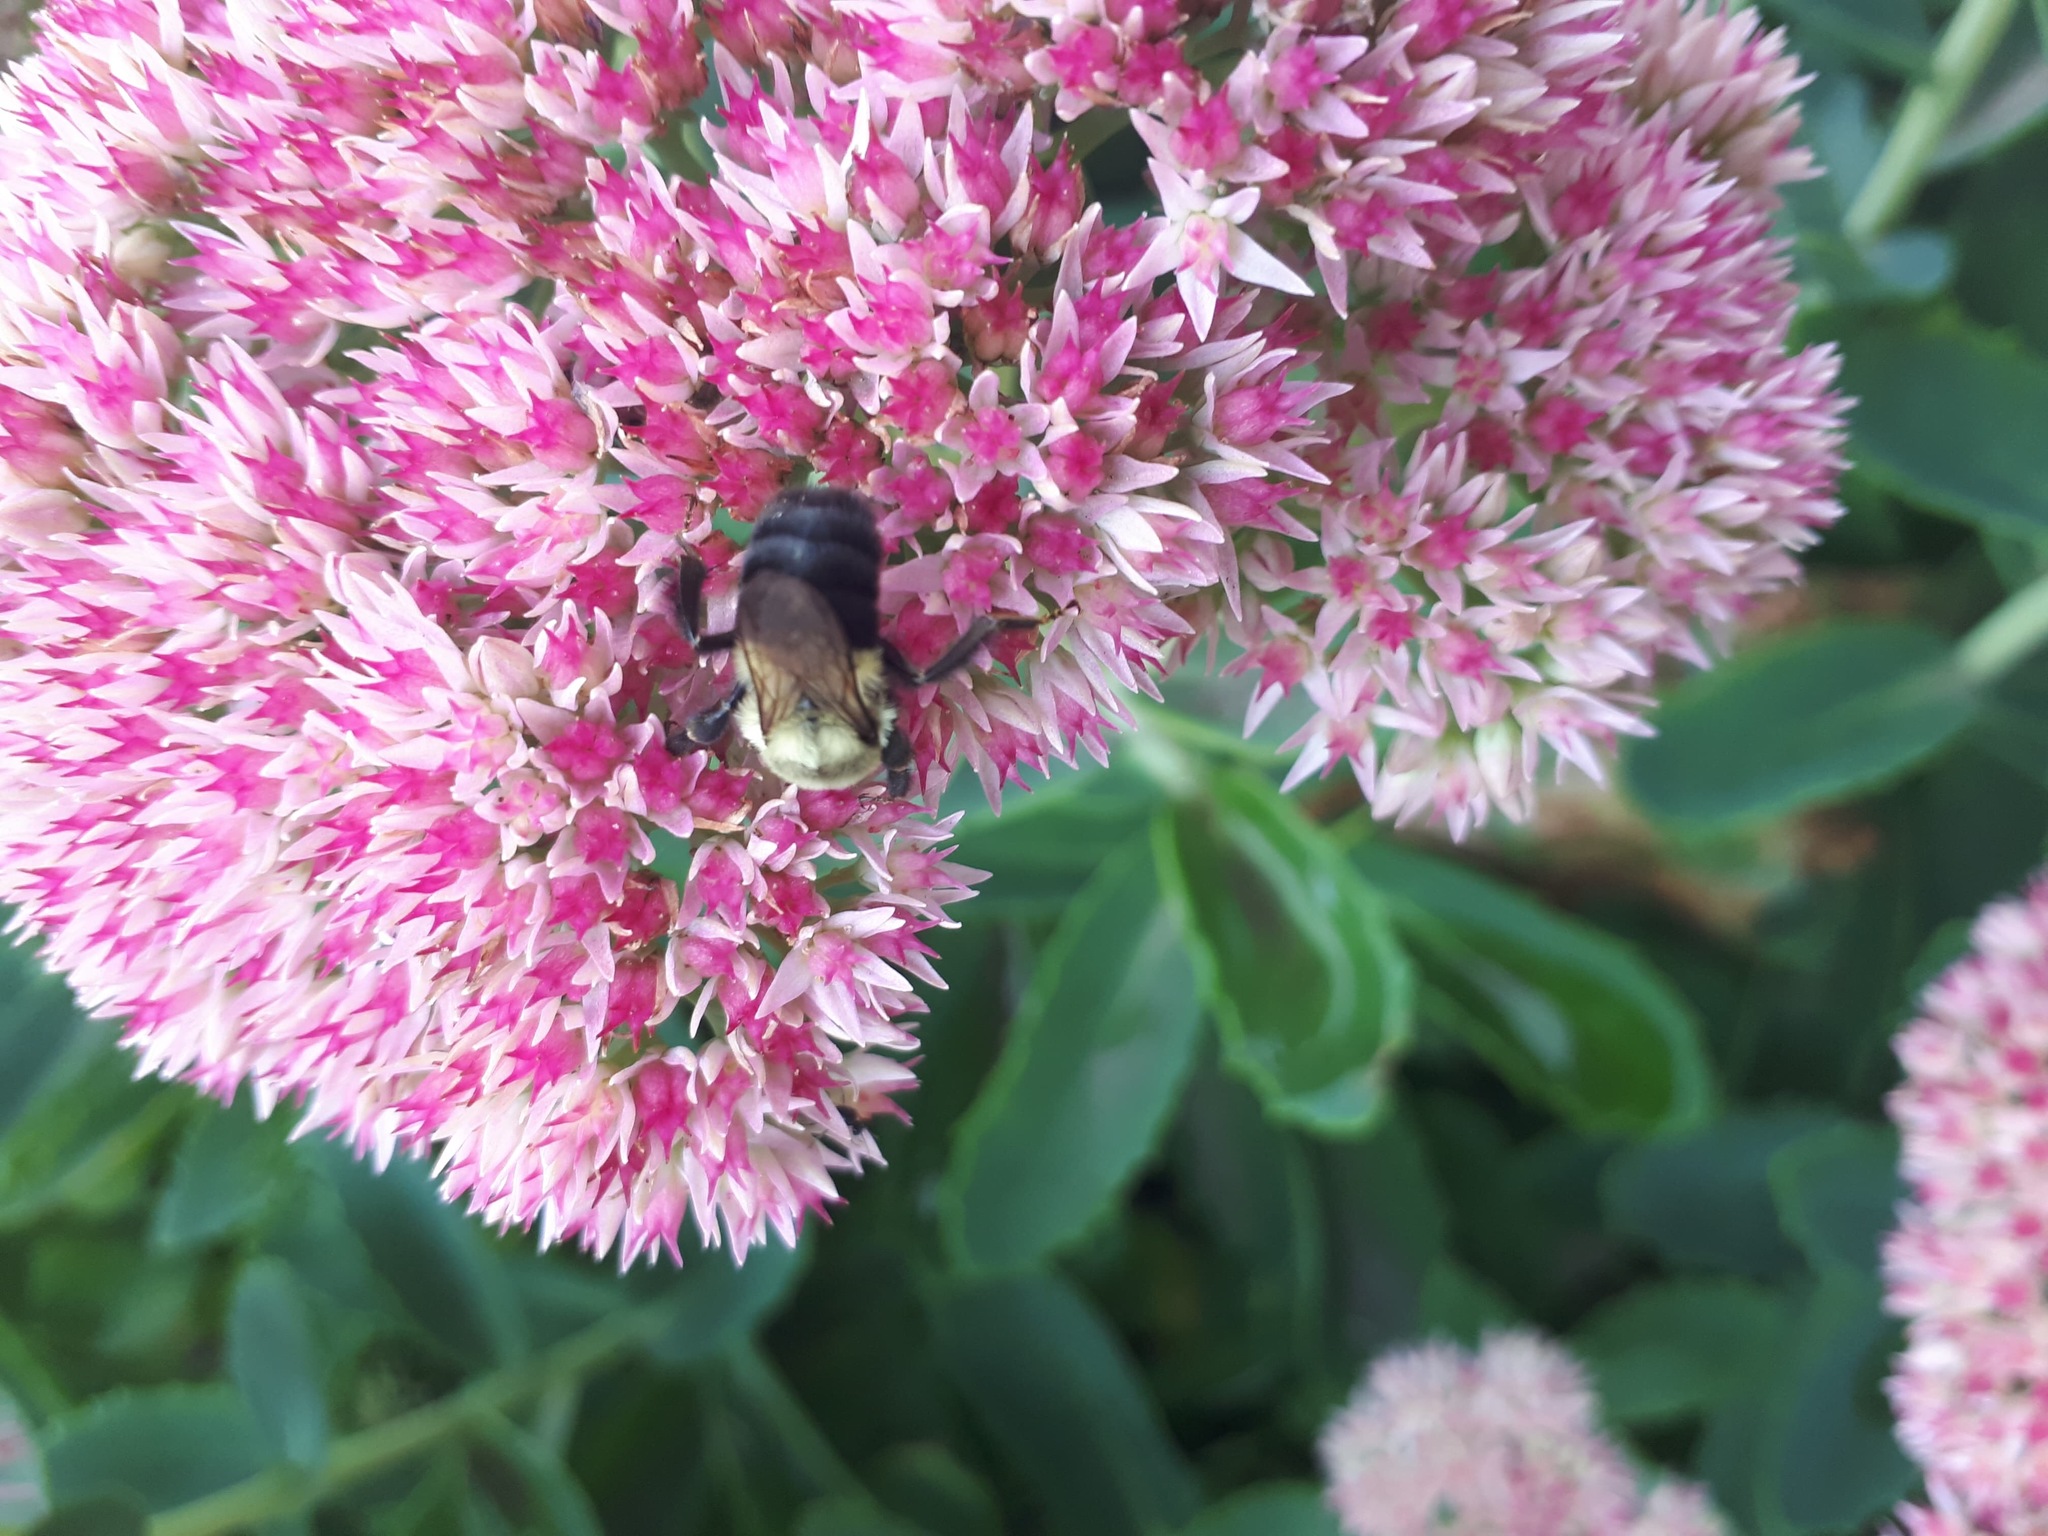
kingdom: Animalia
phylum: Arthropoda
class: Insecta
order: Hymenoptera
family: Apidae
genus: Bombus
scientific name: Bombus impatiens
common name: Common eastern bumble bee
